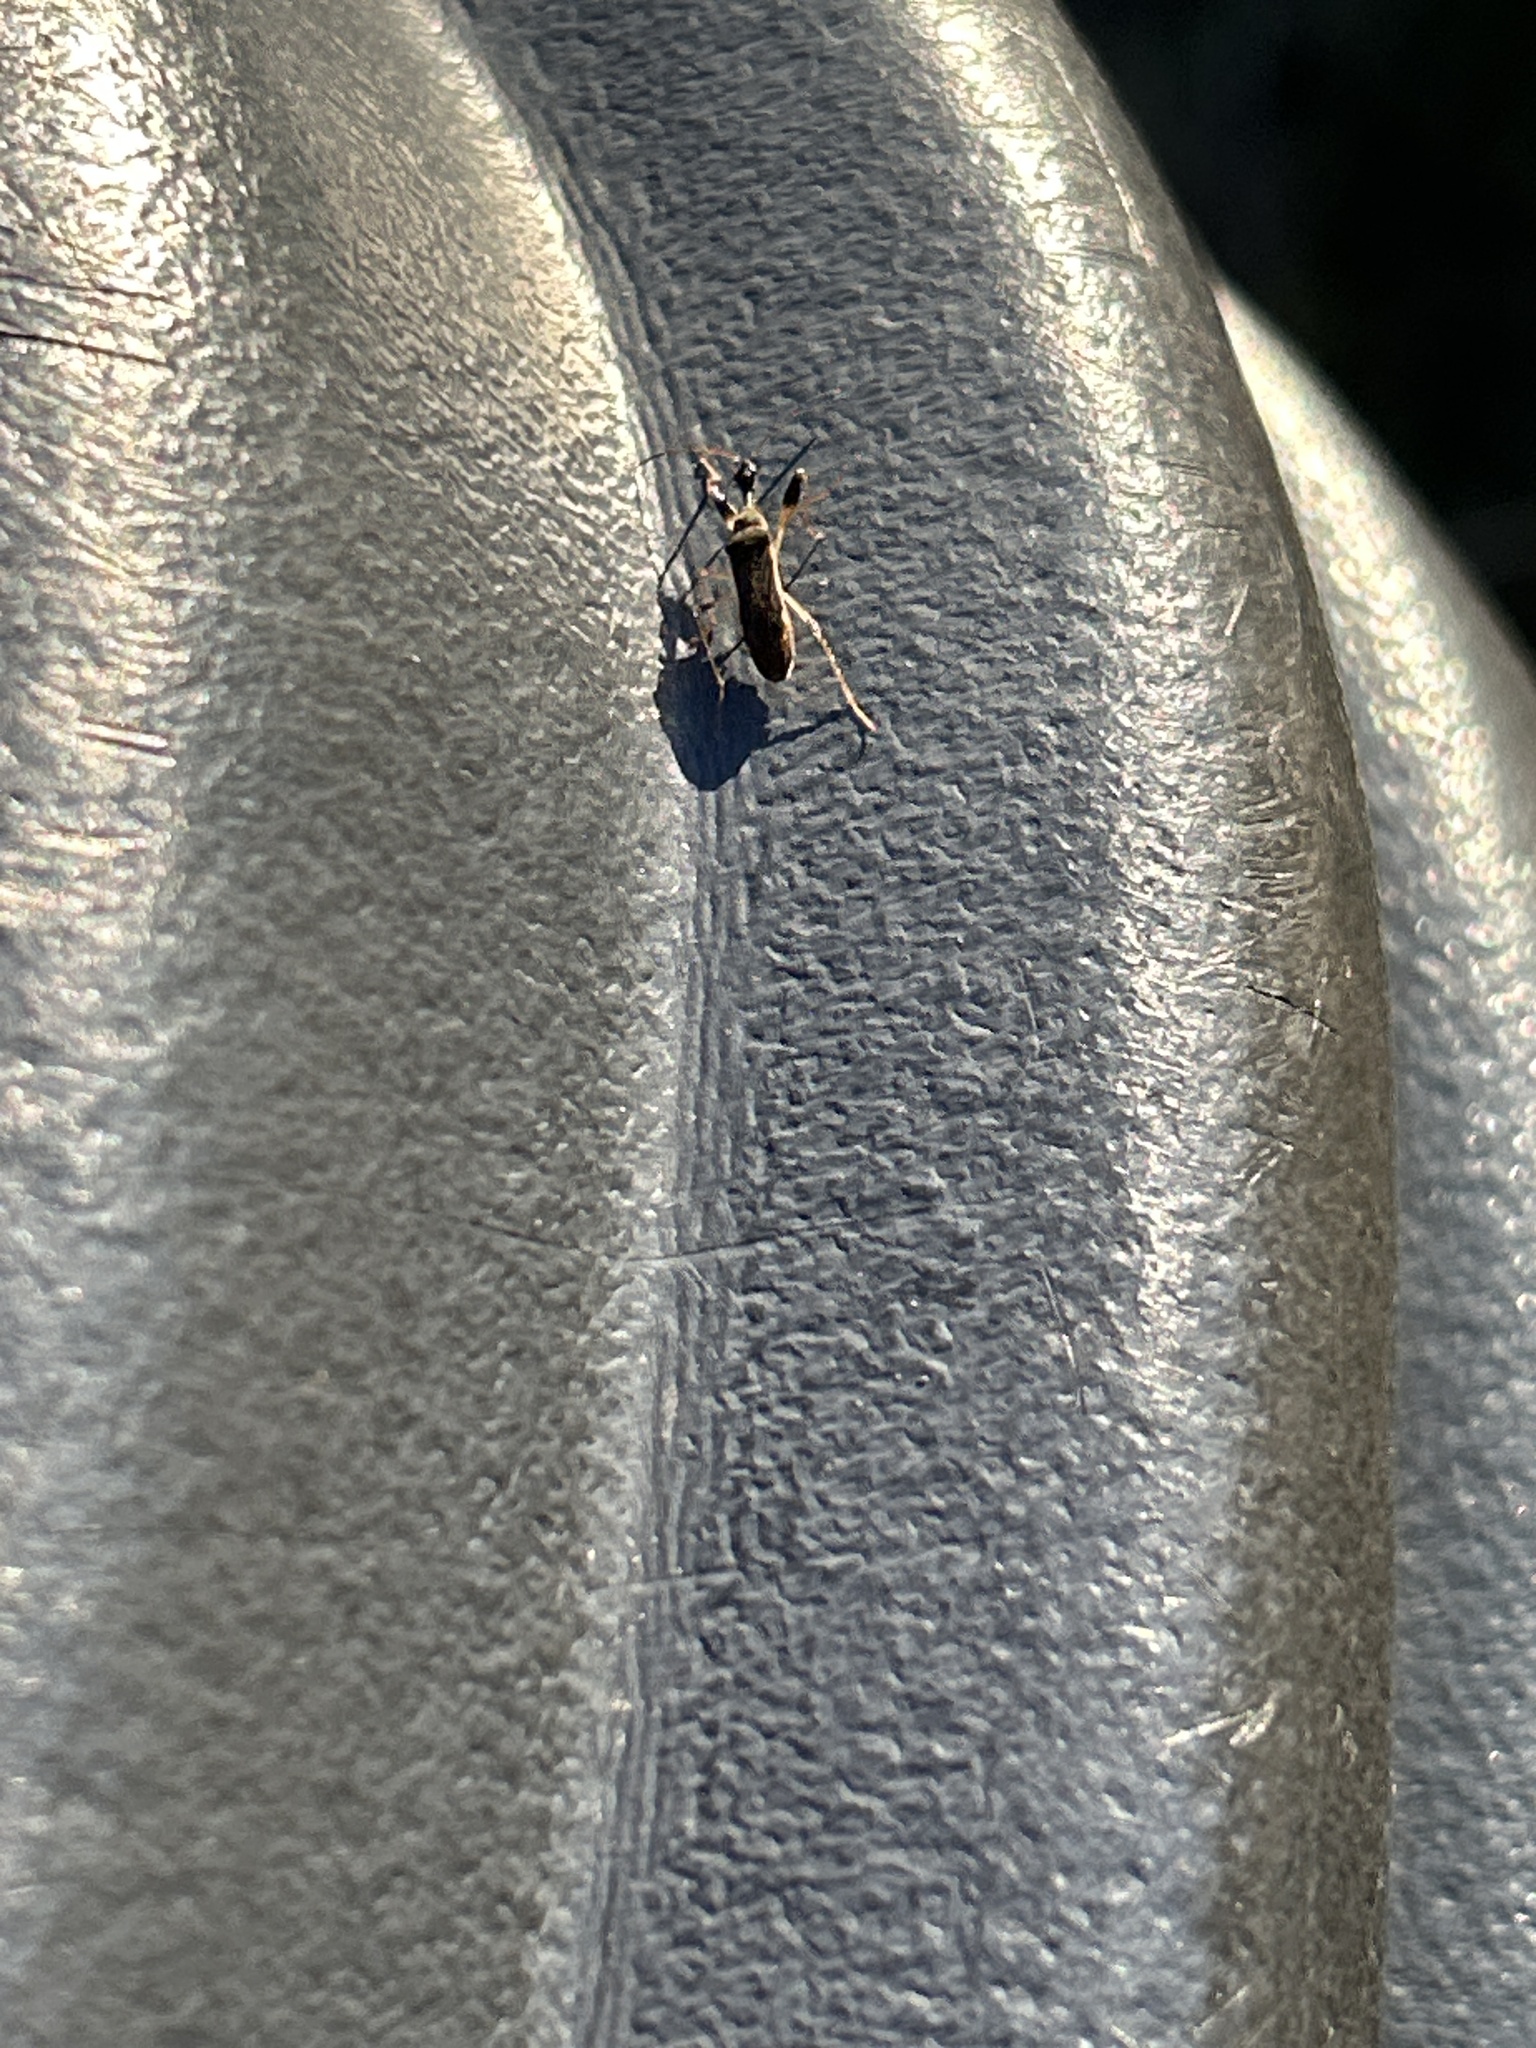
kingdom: Animalia
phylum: Arthropoda
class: Insecta
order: Hemiptera
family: Rhyparochromidae
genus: Myodocha
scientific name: Myodocha serripes
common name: Long-necked seed bug
